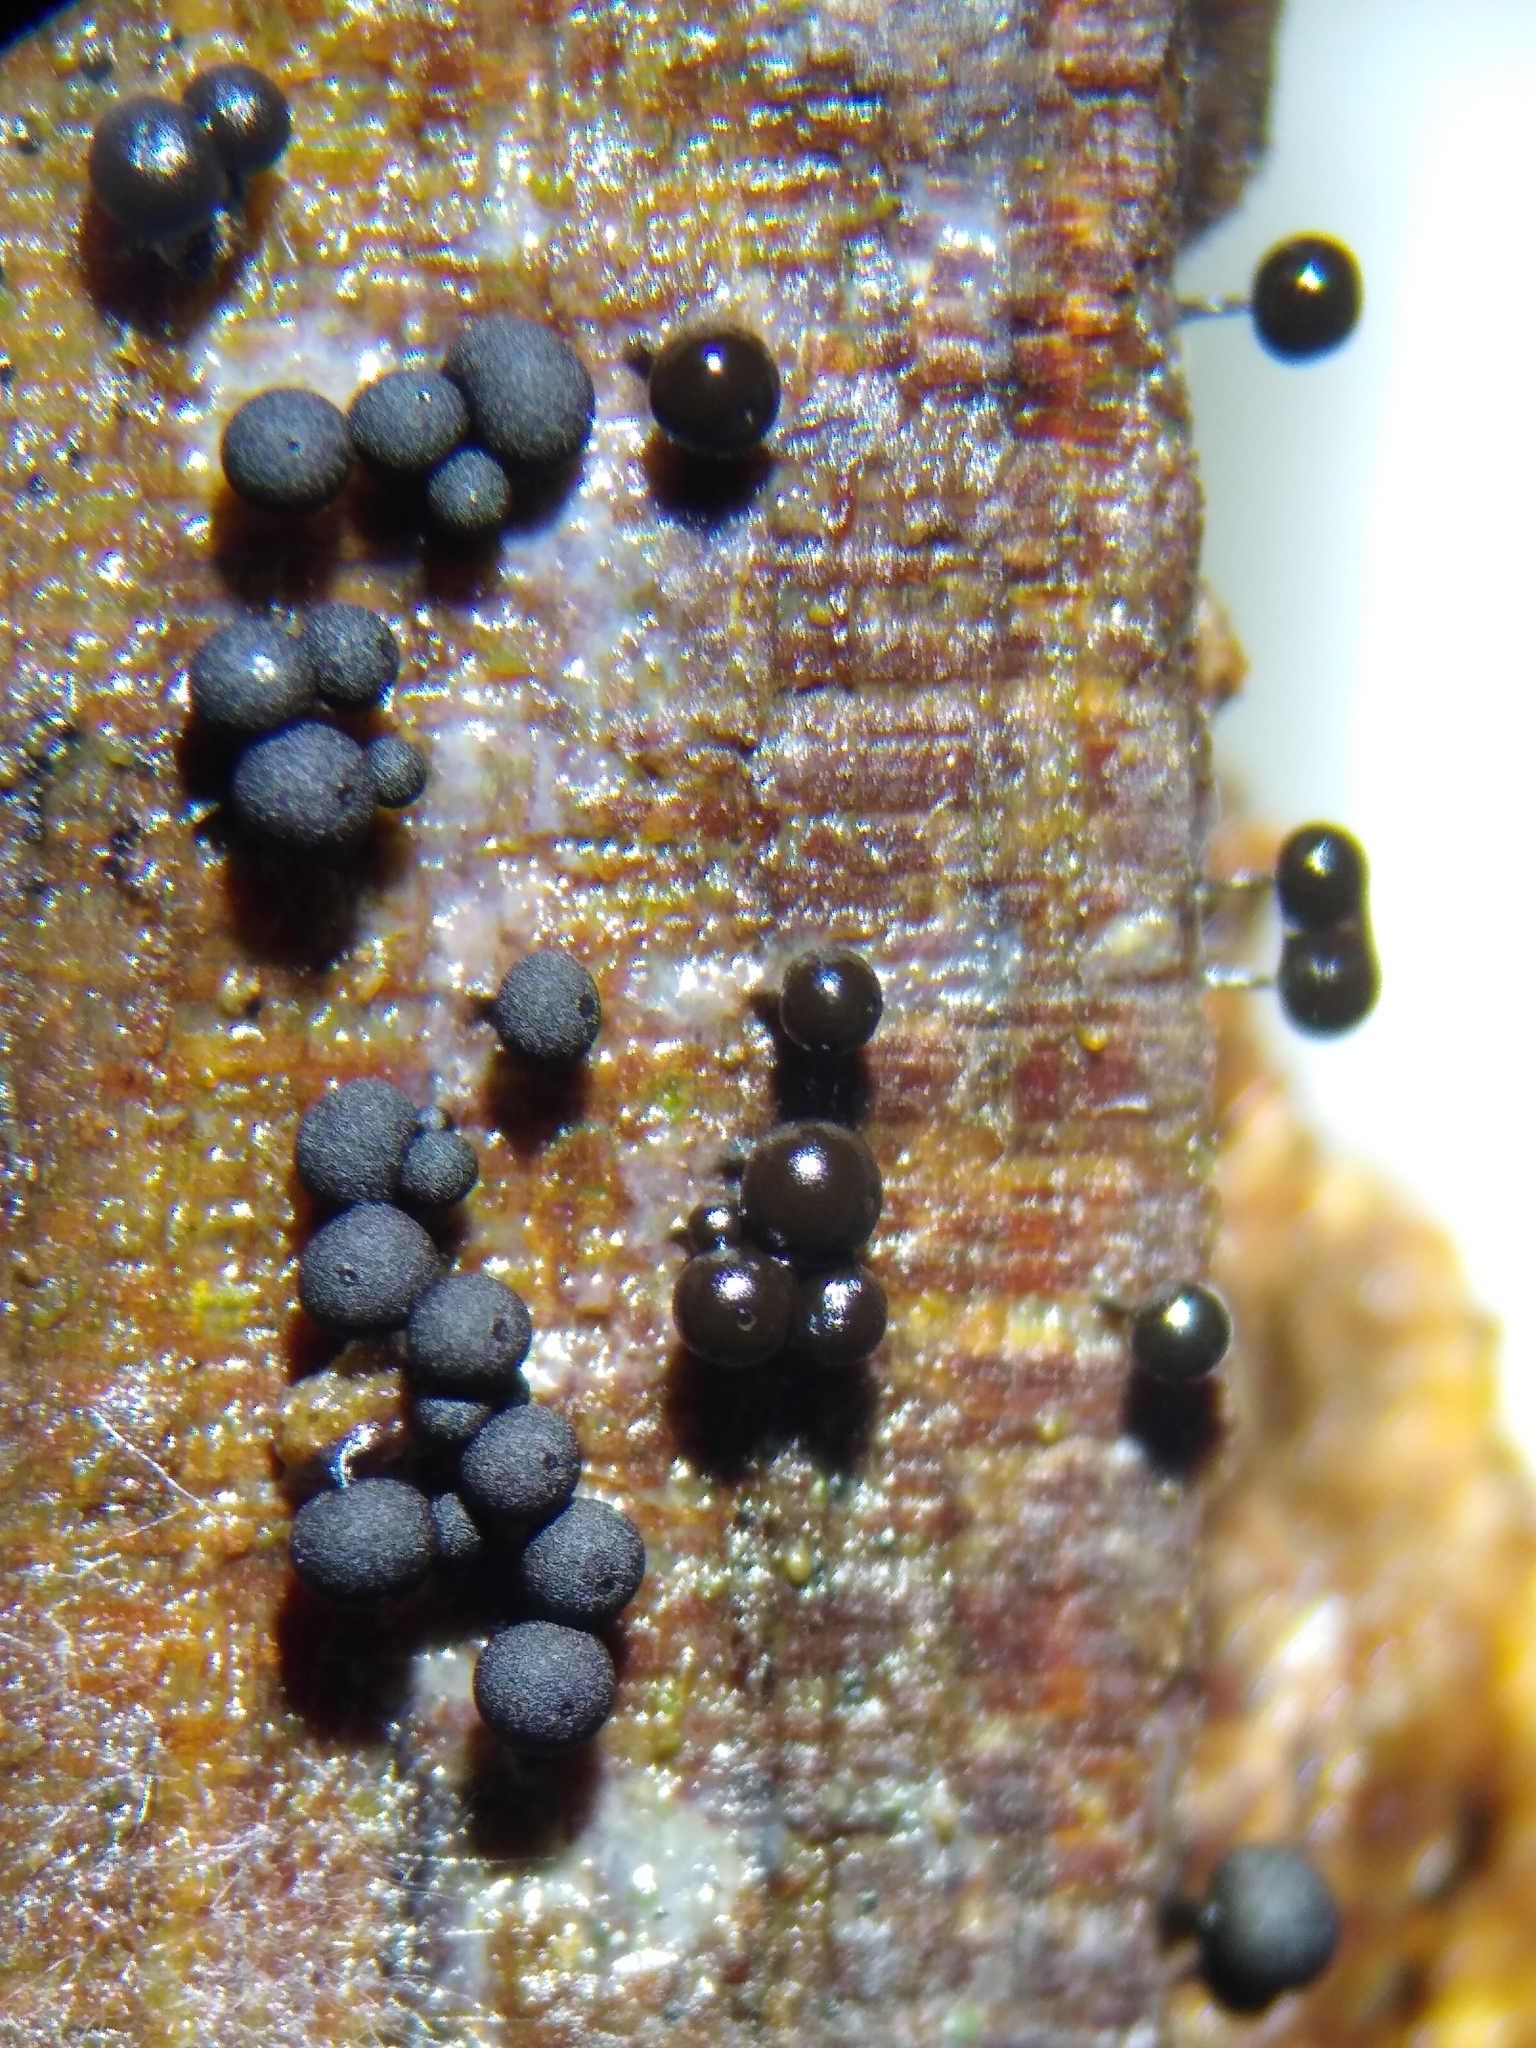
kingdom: Protozoa
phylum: Mycetozoa
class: Myxomycetes
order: Stemonitidales
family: Stemonitidaceae
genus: Enerthenema
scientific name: Enerthenema papillatum
